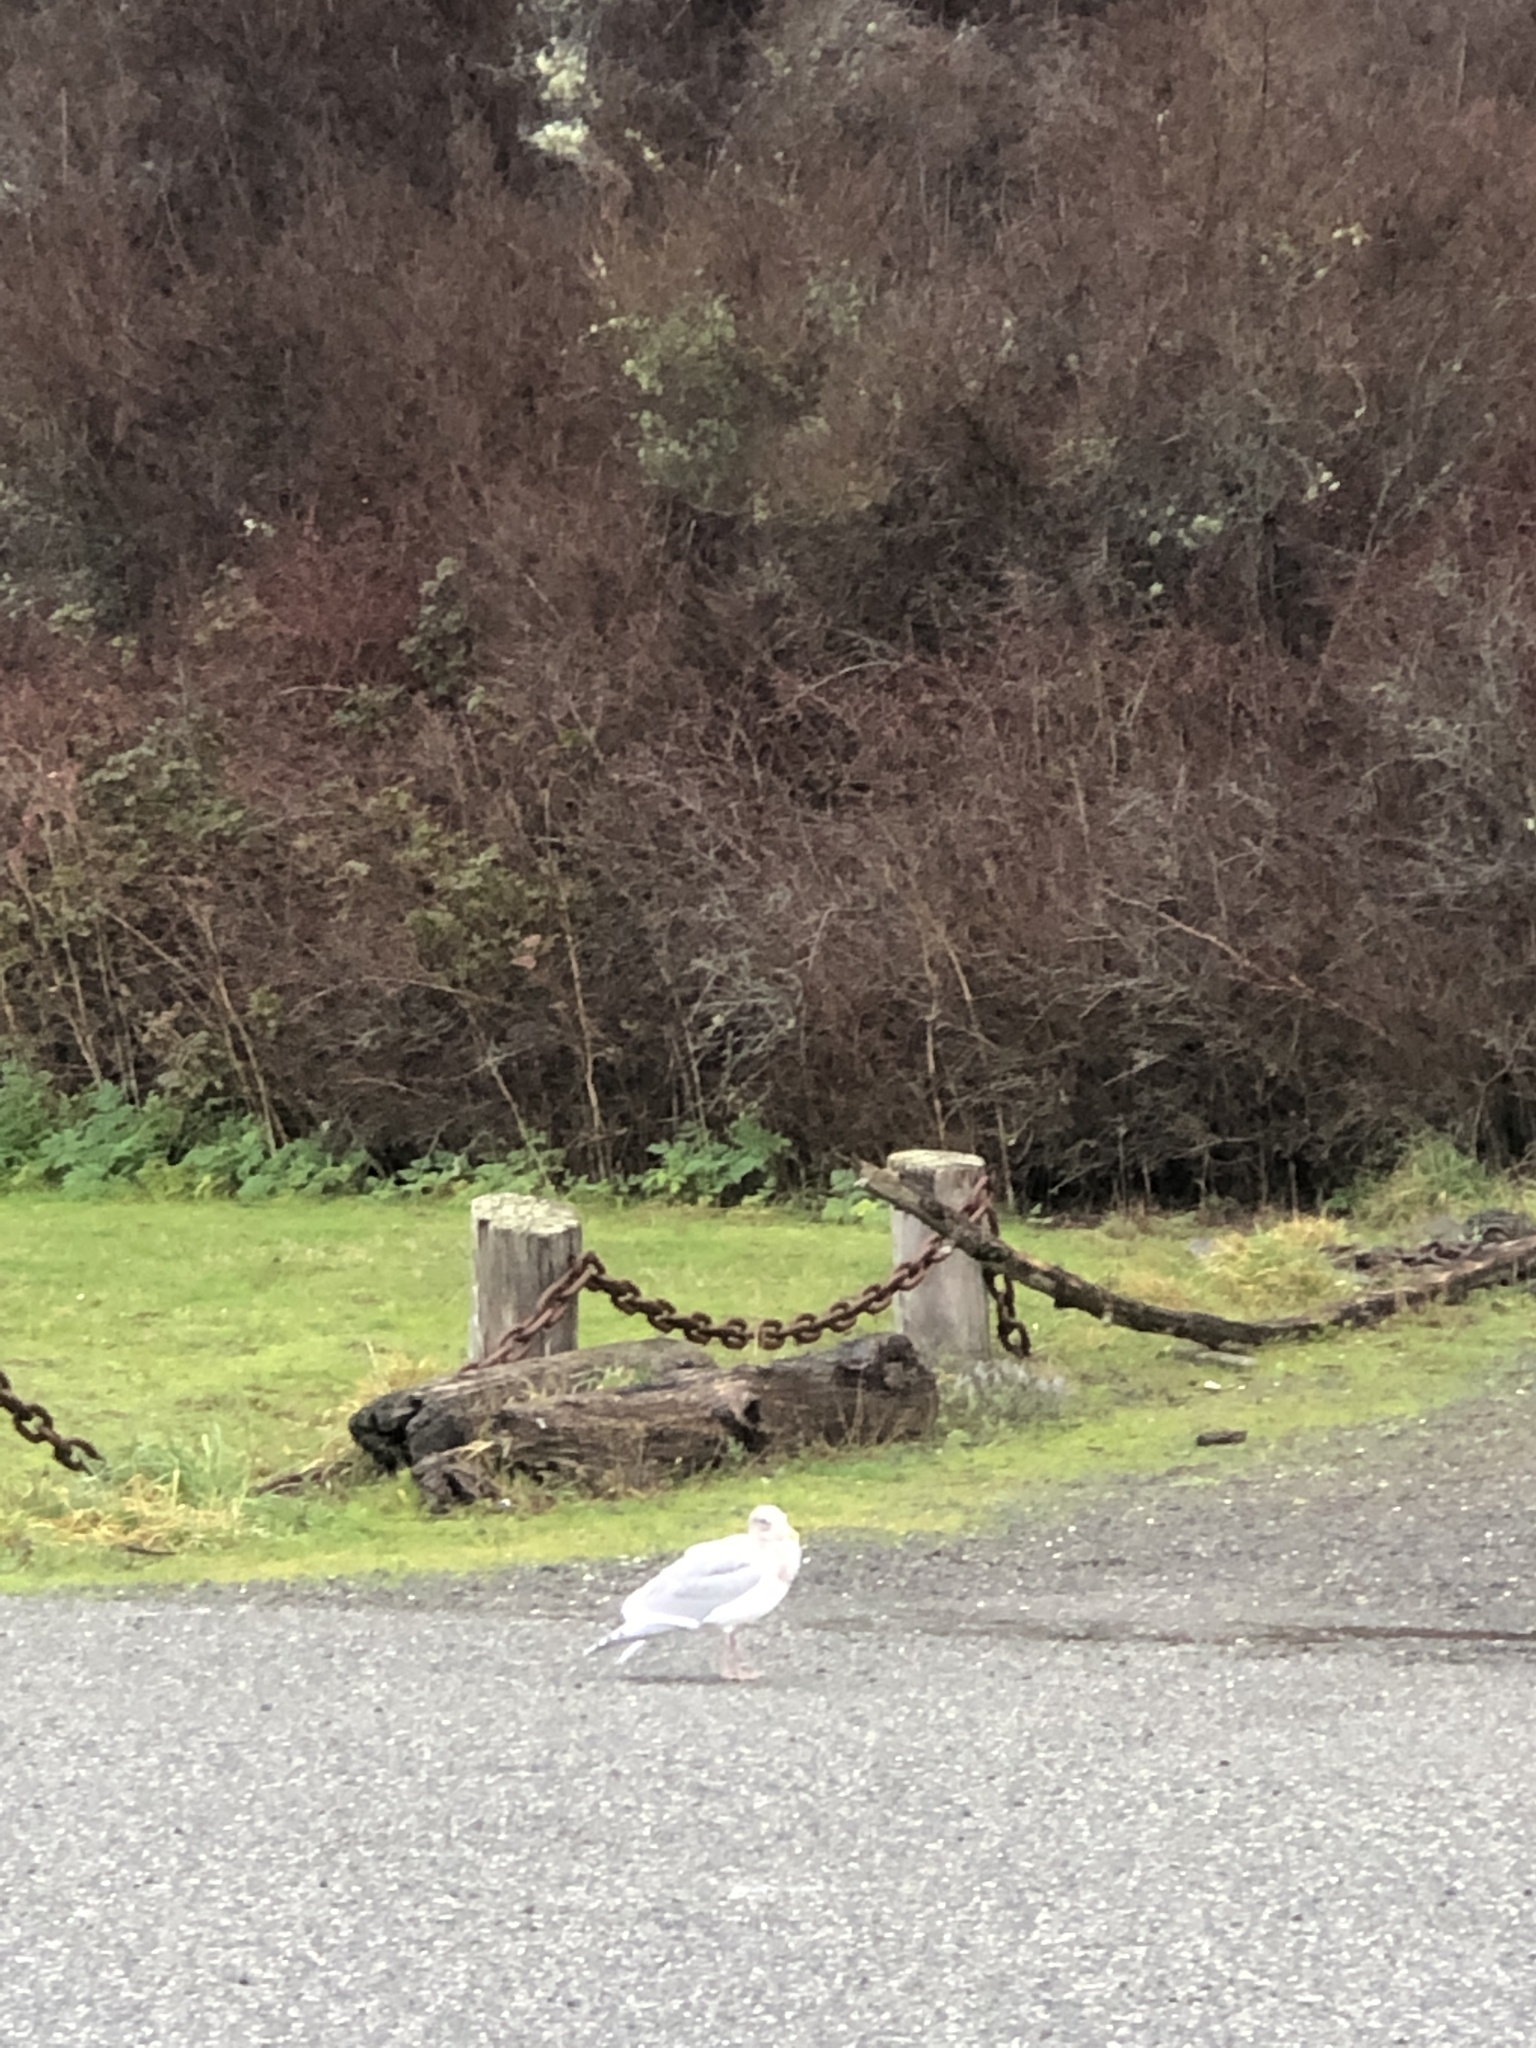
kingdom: Animalia
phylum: Chordata
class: Aves
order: Charadriiformes
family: Laridae
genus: Larus
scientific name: Larus
